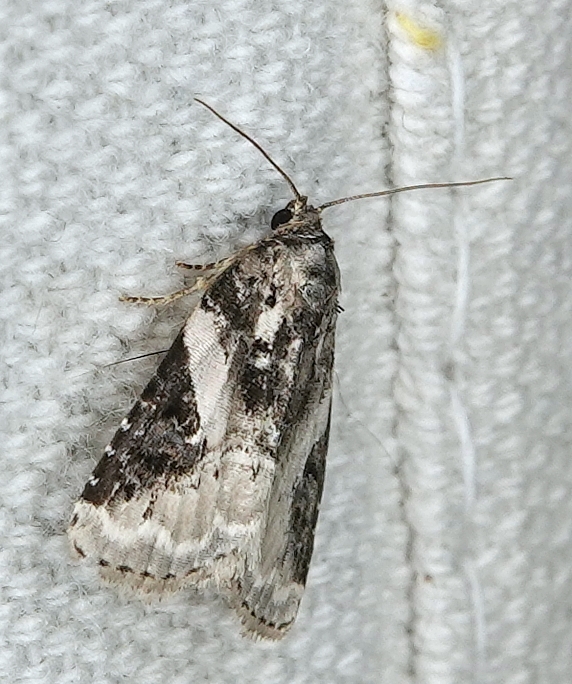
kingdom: Animalia
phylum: Arthropoda
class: Insecta
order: Lepidoptera
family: Noctuidae
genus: Pseudeustrotia
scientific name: Pseudeustrotia carneola
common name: Pink-barred lithacodia moth
